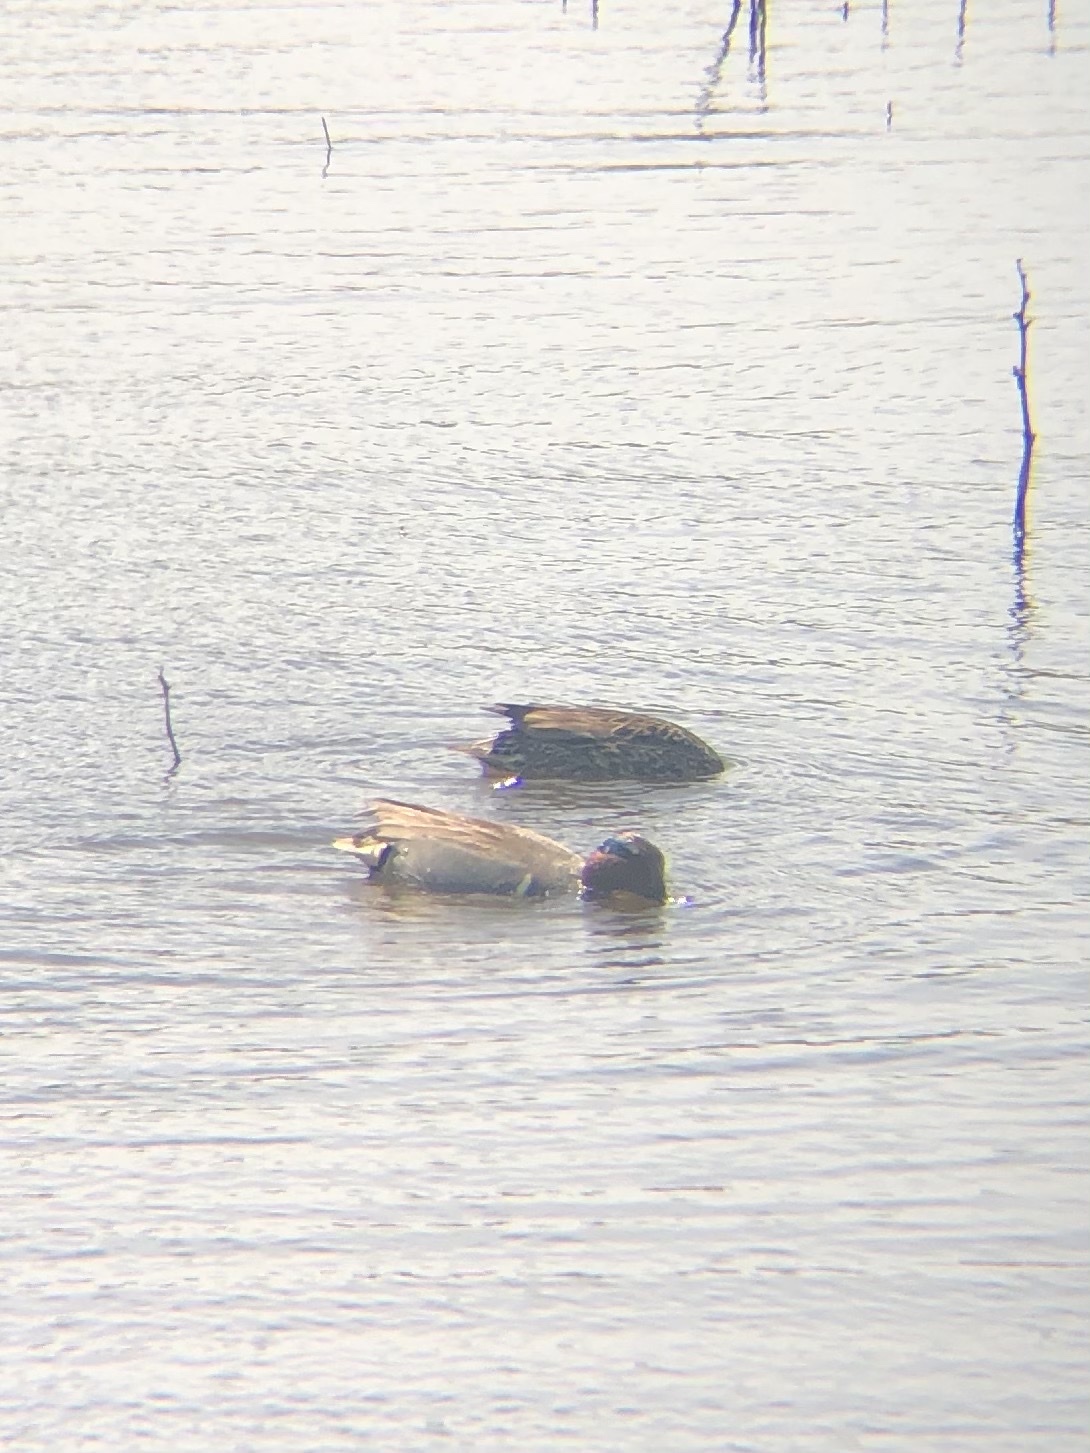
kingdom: Animalia
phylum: Chordata
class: Aves
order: Anseriformes
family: Anatidae
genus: Anas
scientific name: Anas crecca
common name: Eurasian teal
